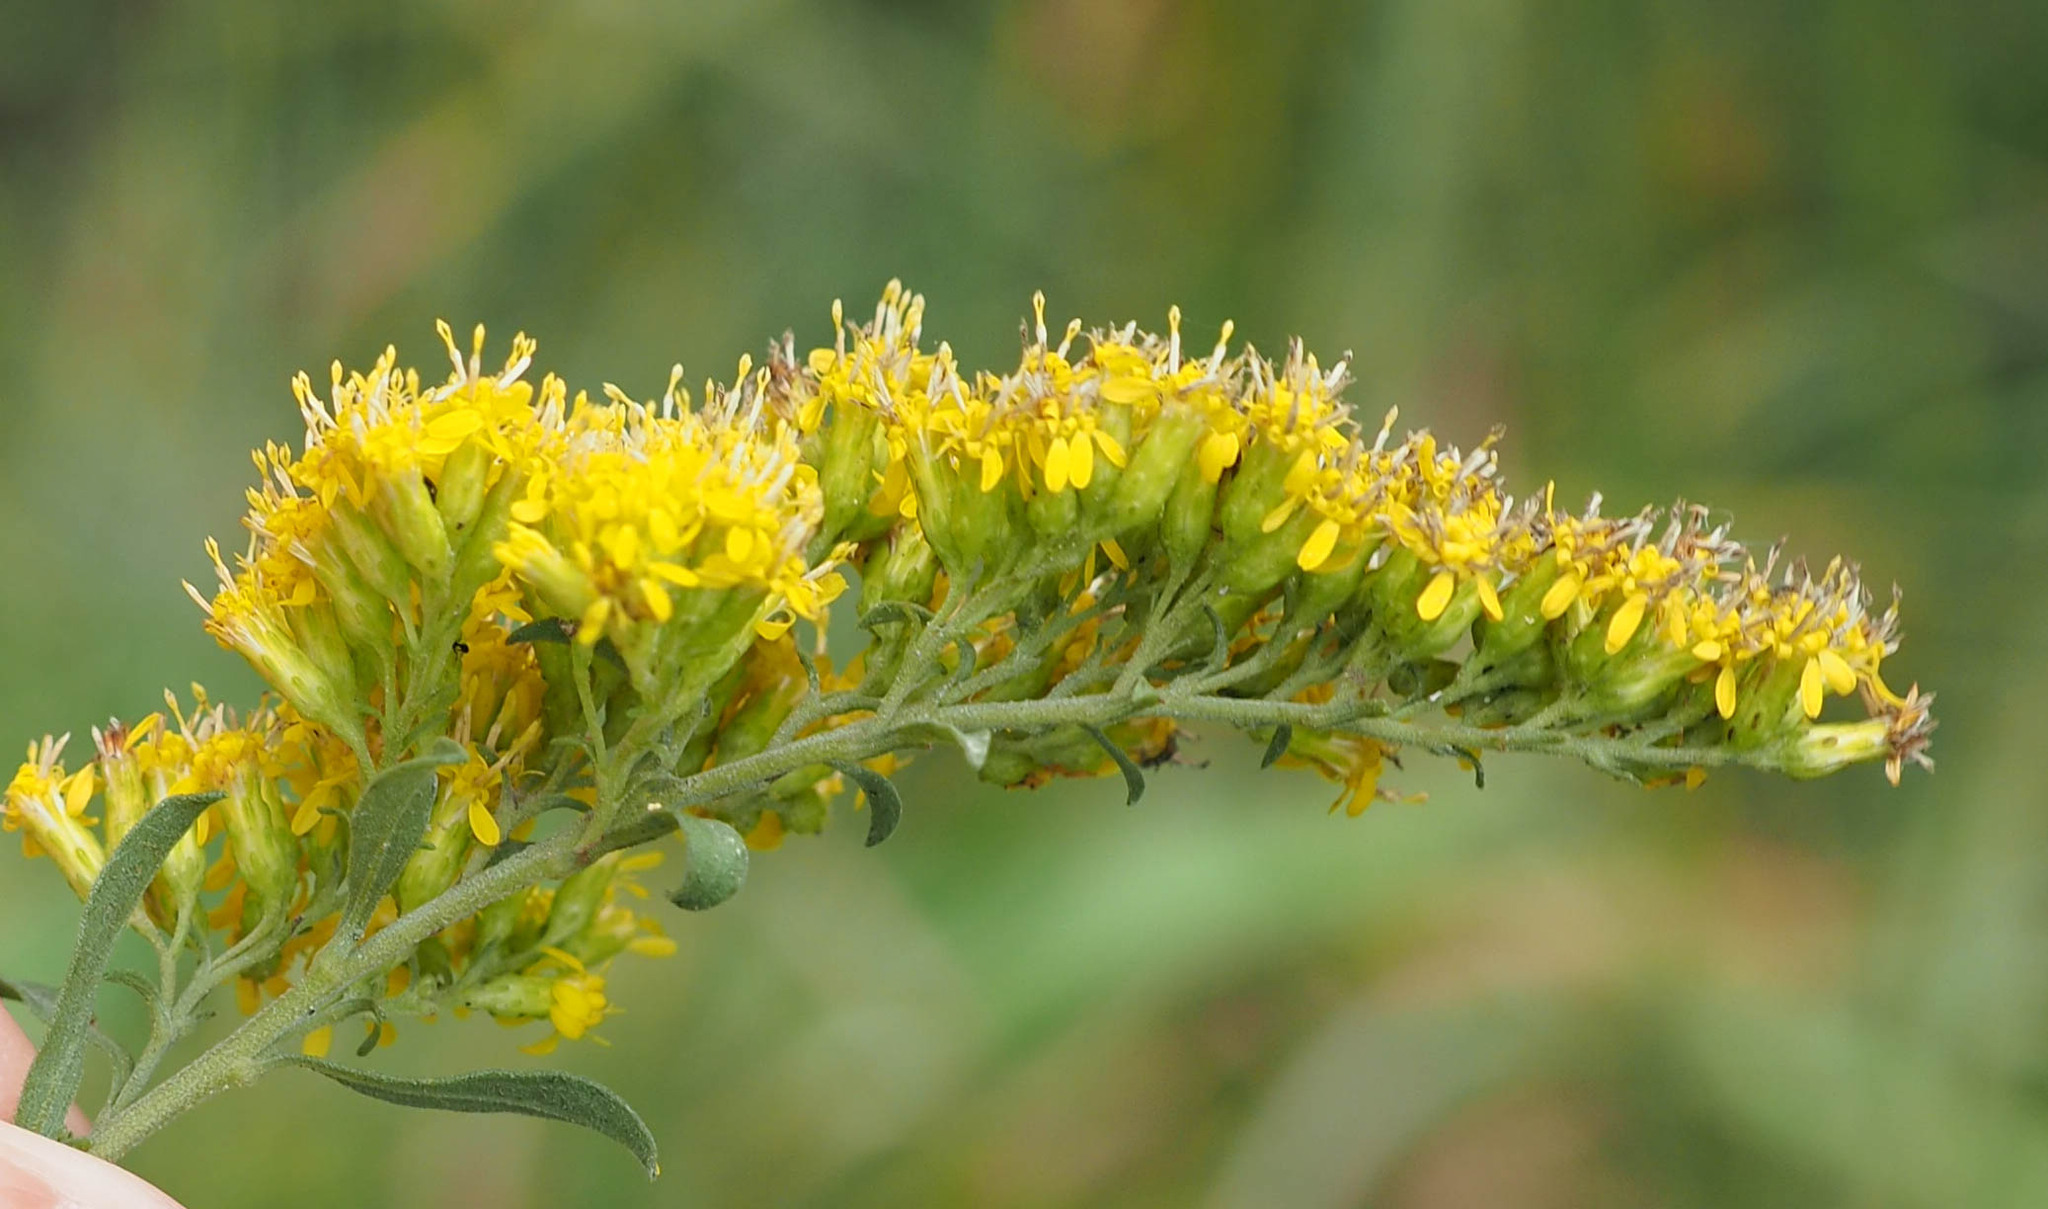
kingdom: Plantae
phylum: Tracheophyta
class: Magnoliopsida
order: Asterales
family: Asteraceae
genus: Solidago
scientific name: Solidago nemoralis
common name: Grey goldenrod
